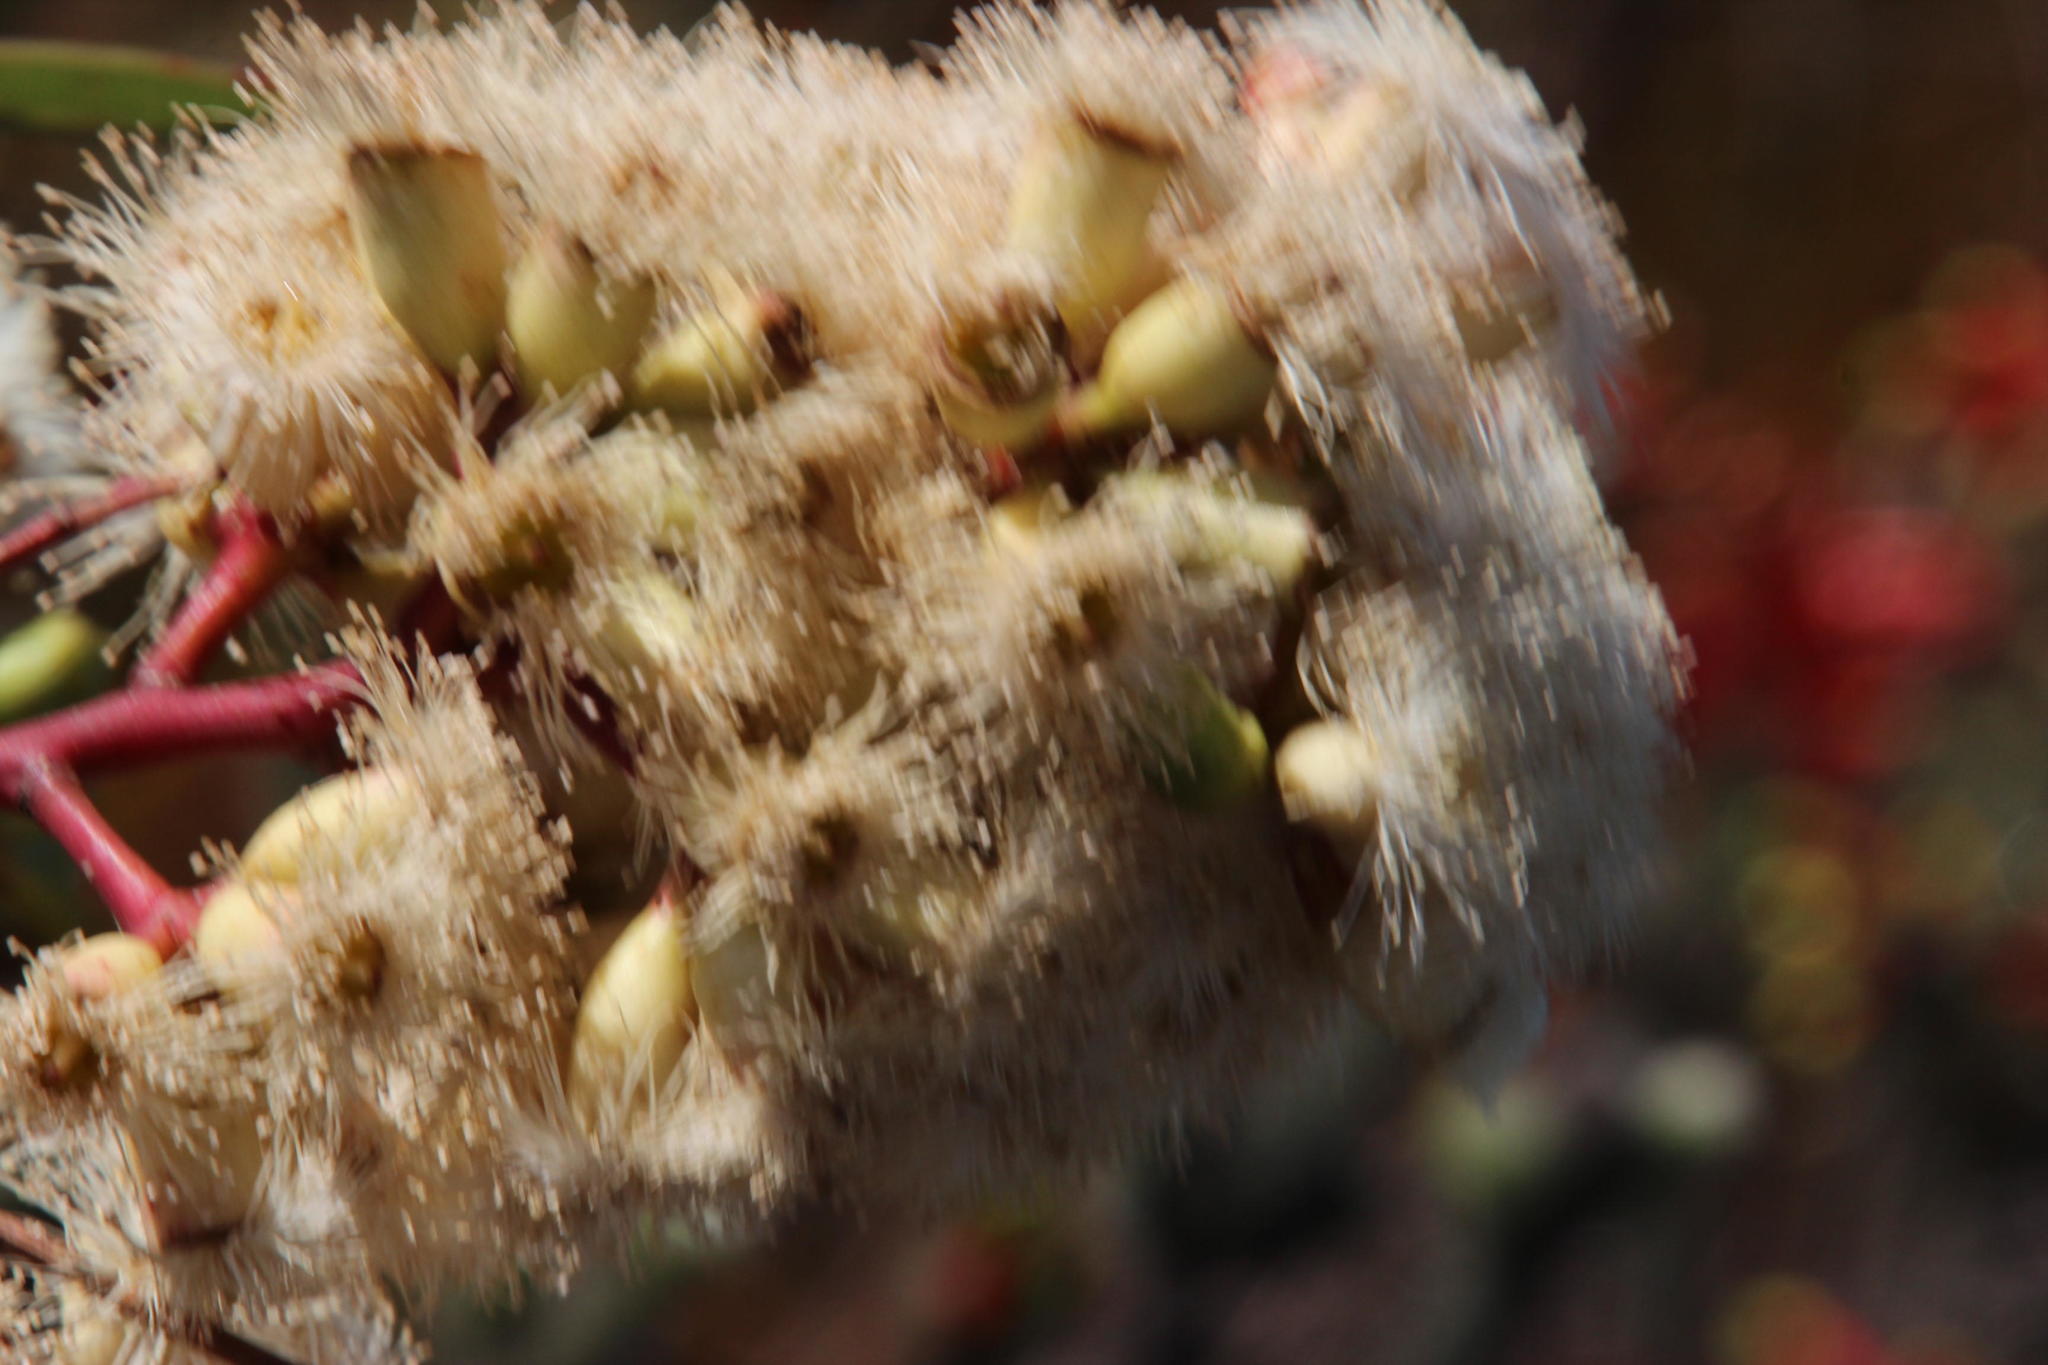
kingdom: Plantae
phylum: Tracheophyta
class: Magnoliopsida
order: Myrtales
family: Myrtaceae
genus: Corymbia
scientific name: Corymbia citriodora
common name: Lemonscented gum
